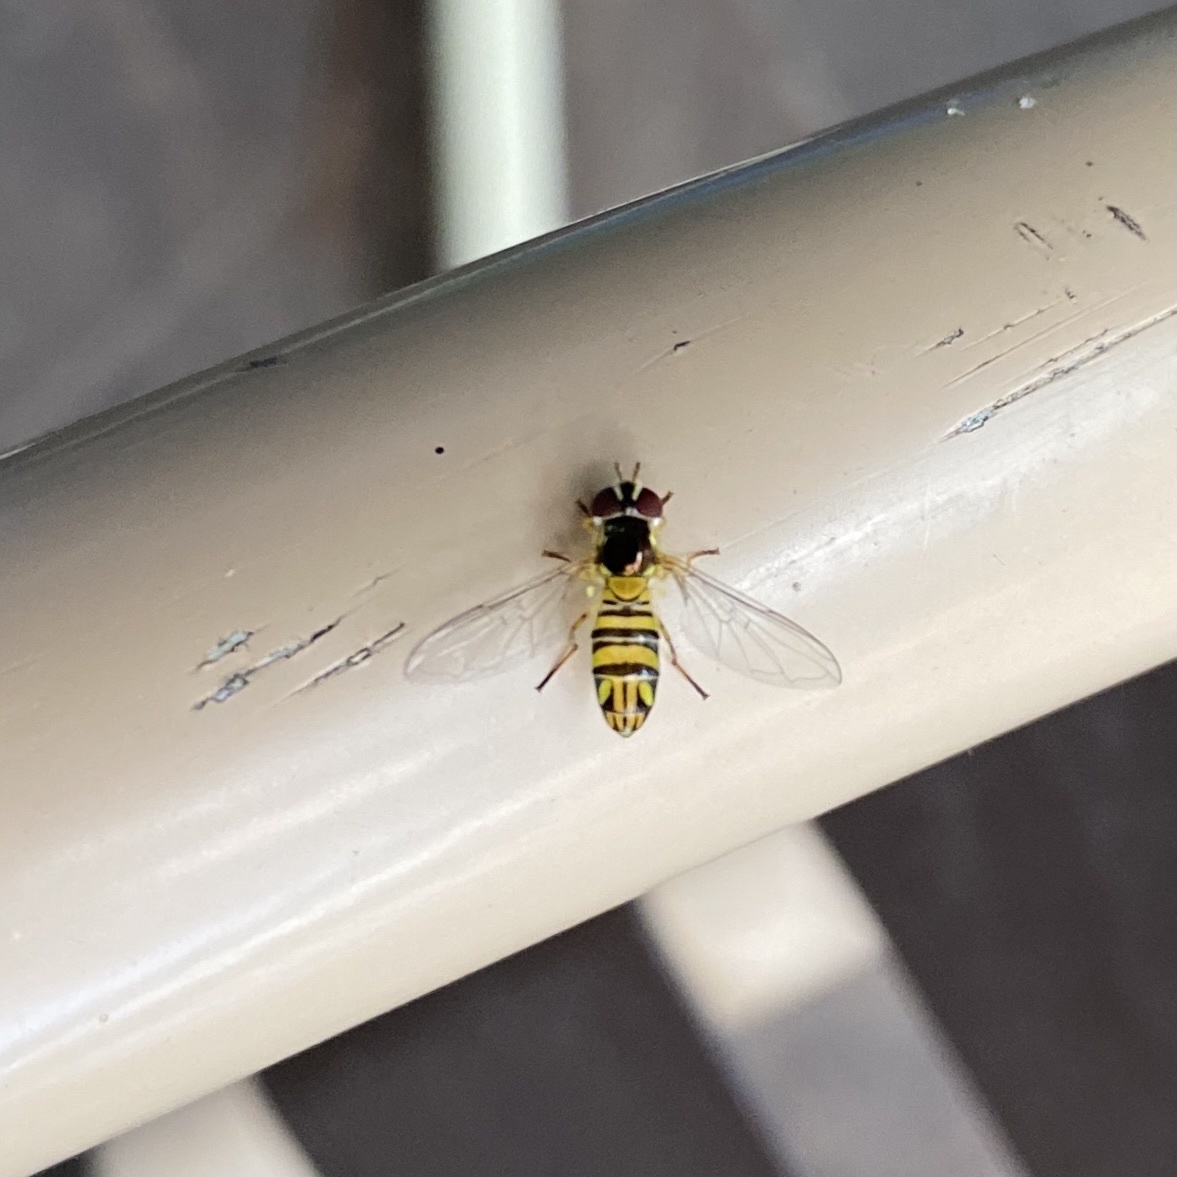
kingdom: Animalia
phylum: Arthropoda
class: Insecta
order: Diptera
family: Syrphidae
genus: Allograpta
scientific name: Allograpta obliqua
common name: Common oblique syrphid
